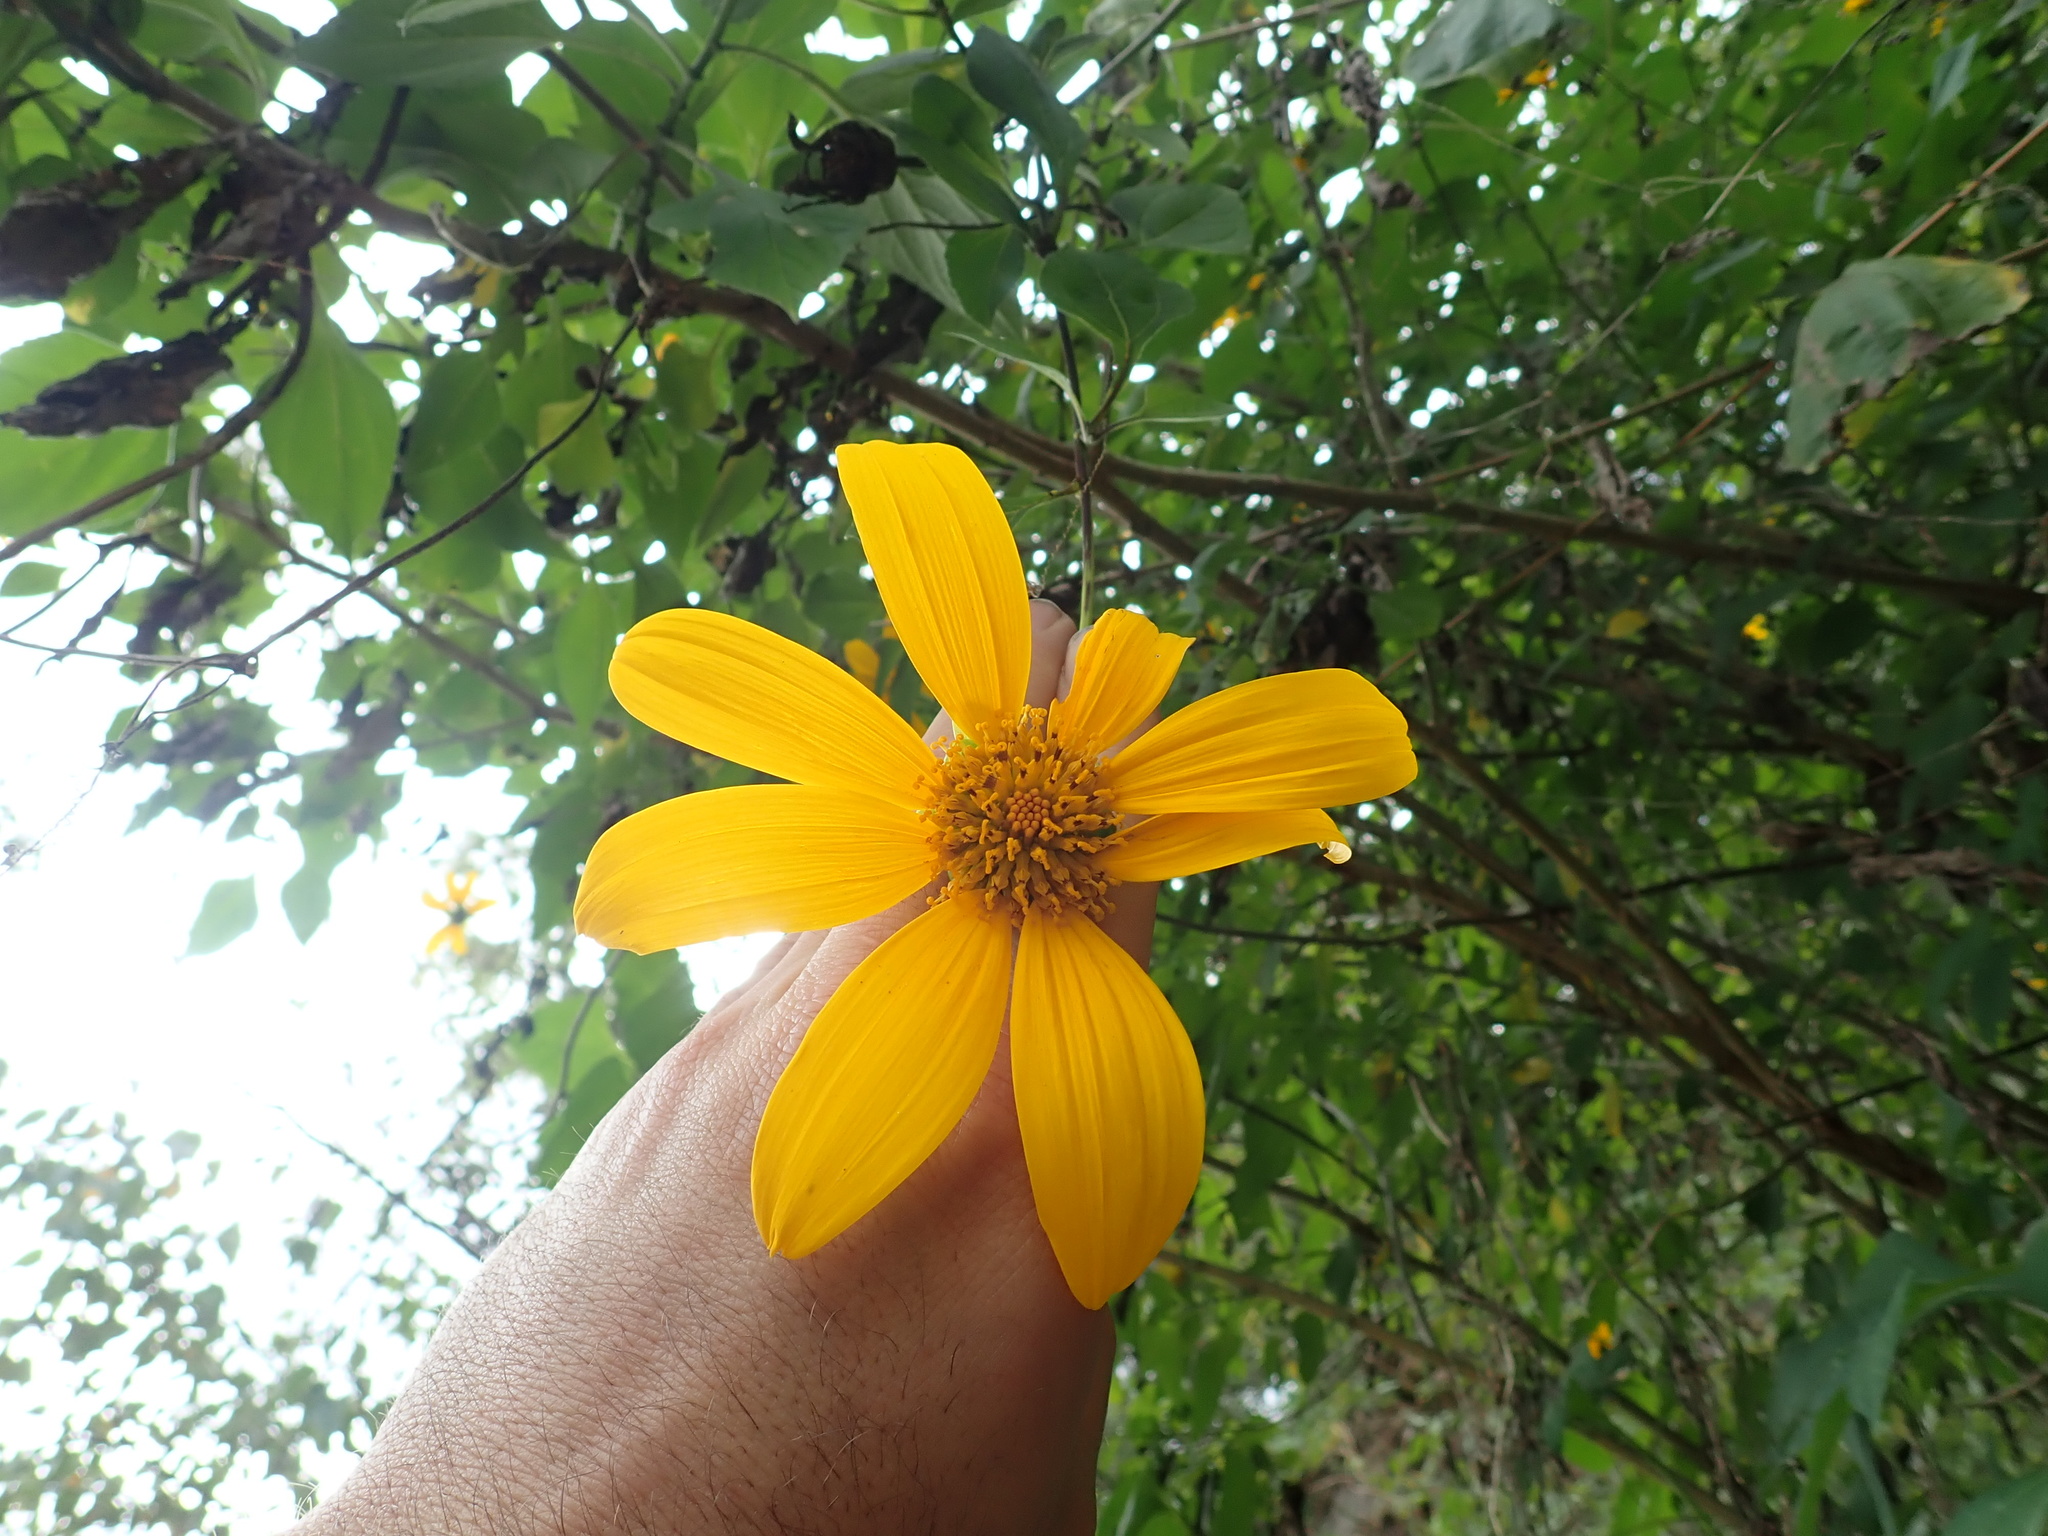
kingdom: Plantae
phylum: Tracheophyta
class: Magnoliopsida
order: Asterales
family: Asteraceae
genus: Tithonia
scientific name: Tithonia diversifolia
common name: Tree marigold
